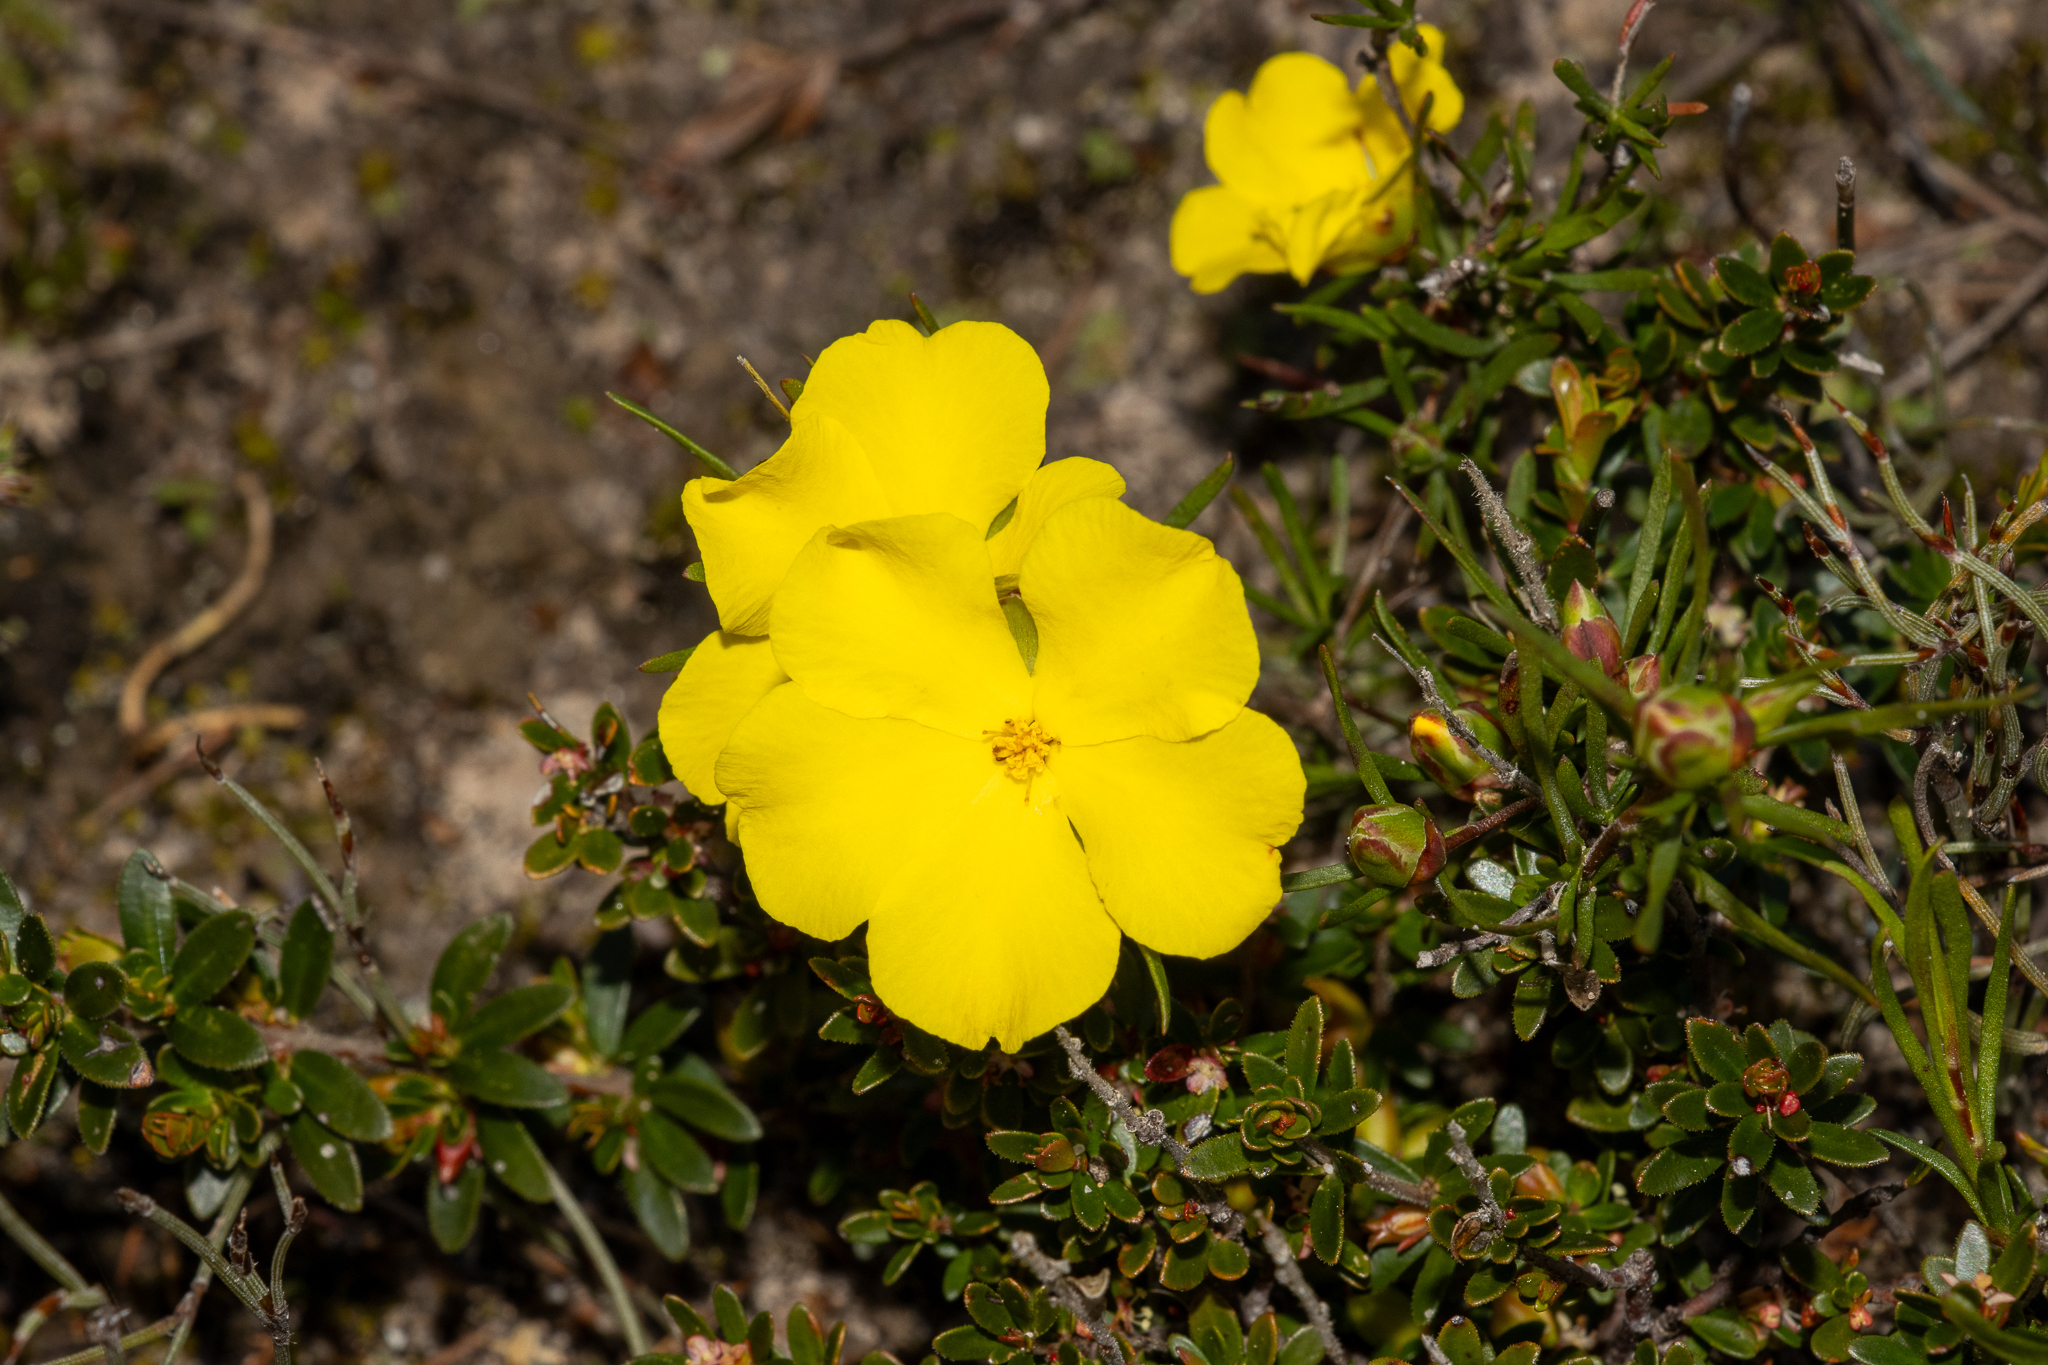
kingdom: Plantae
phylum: Tracheophyta
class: Magnoliopsida
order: Dilleniales
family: Dilleniaceae
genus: Hibbertia
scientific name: Hibbertia virgata
